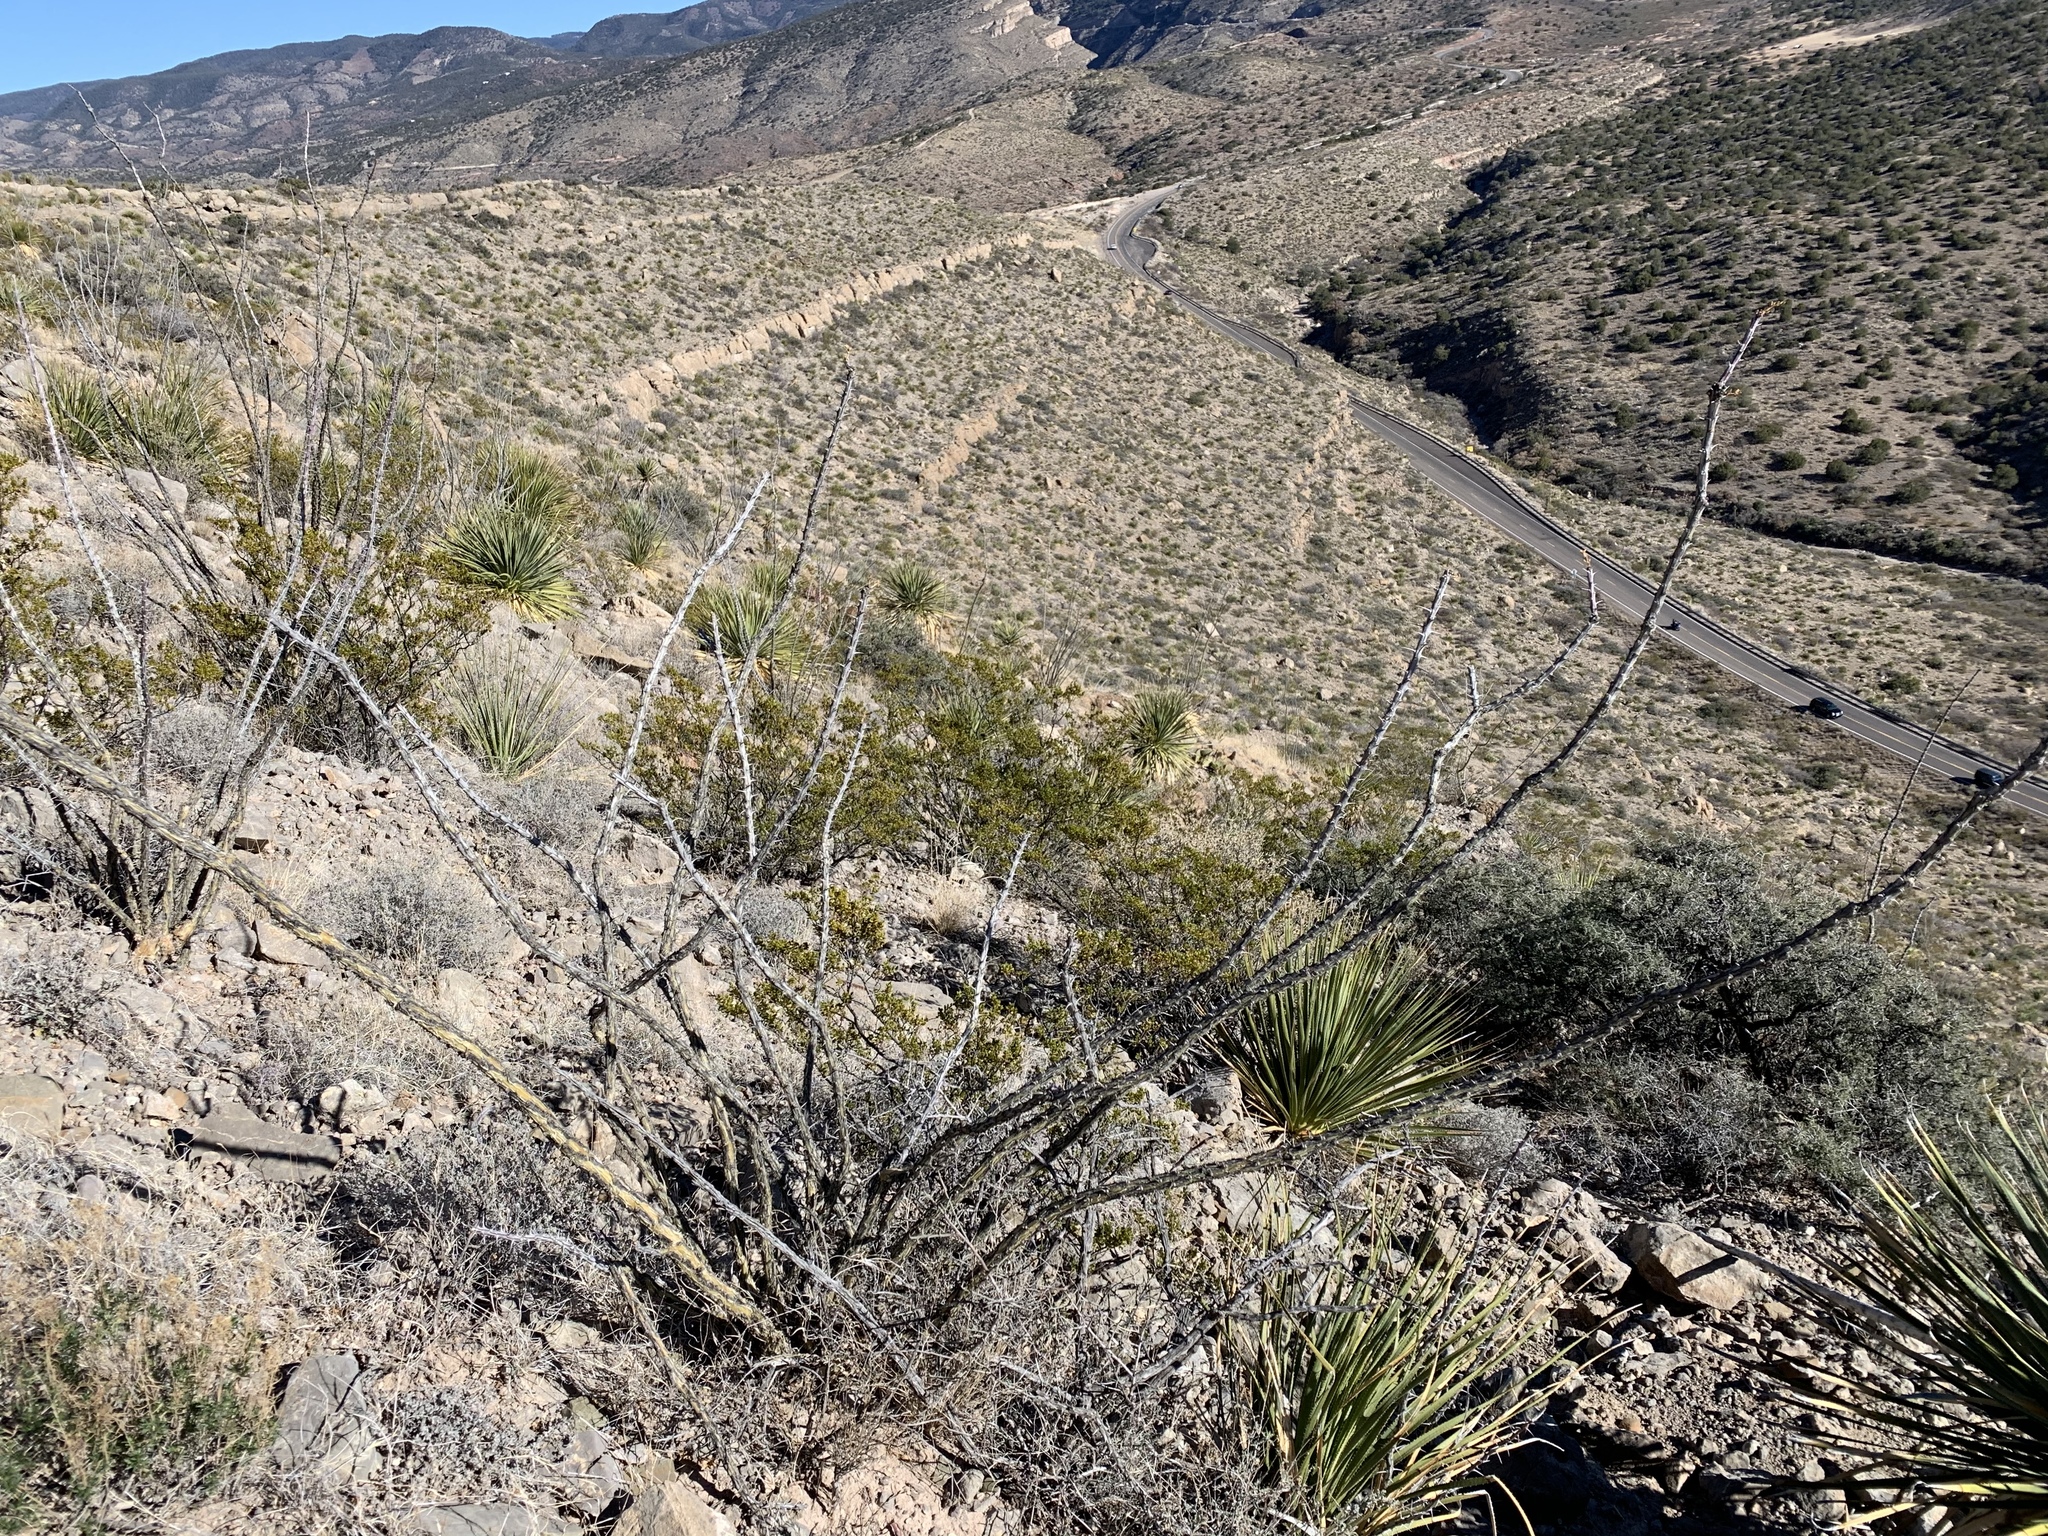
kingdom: Plantae
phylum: Tracheophyta
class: Magnoliopsida
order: Ericales
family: Fouquieriaceae
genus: Fouquieria
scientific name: Fouquieria splendens
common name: Vine-cactus
